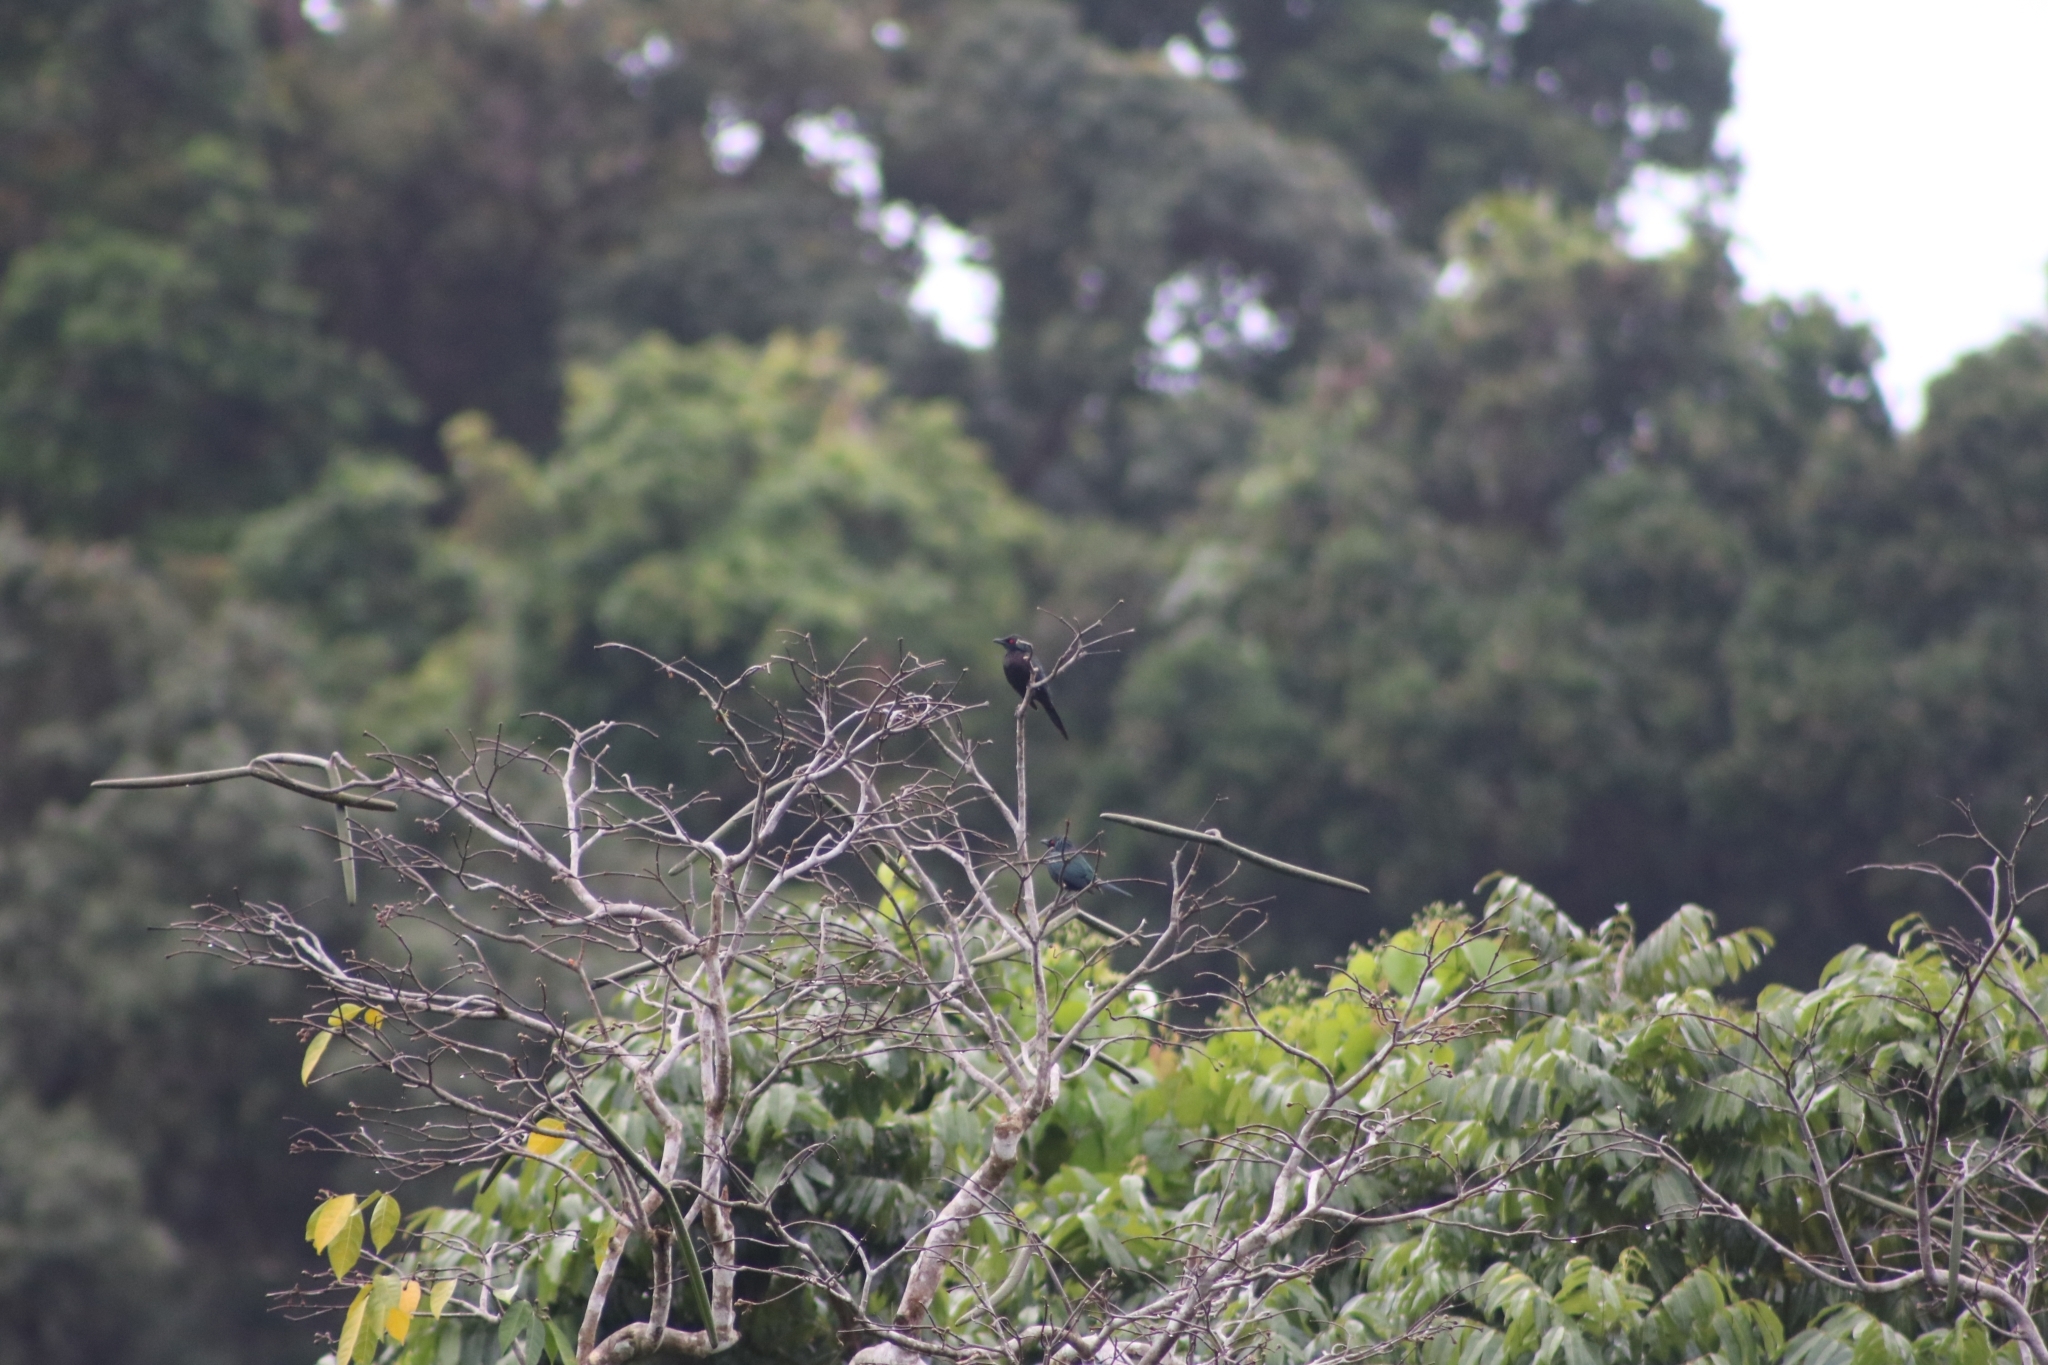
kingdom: Animalia
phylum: Chordata
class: Aves
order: Passeriformes
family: Sturnidae
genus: Aplonis
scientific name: Aplonis metallica
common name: Metallic starling
